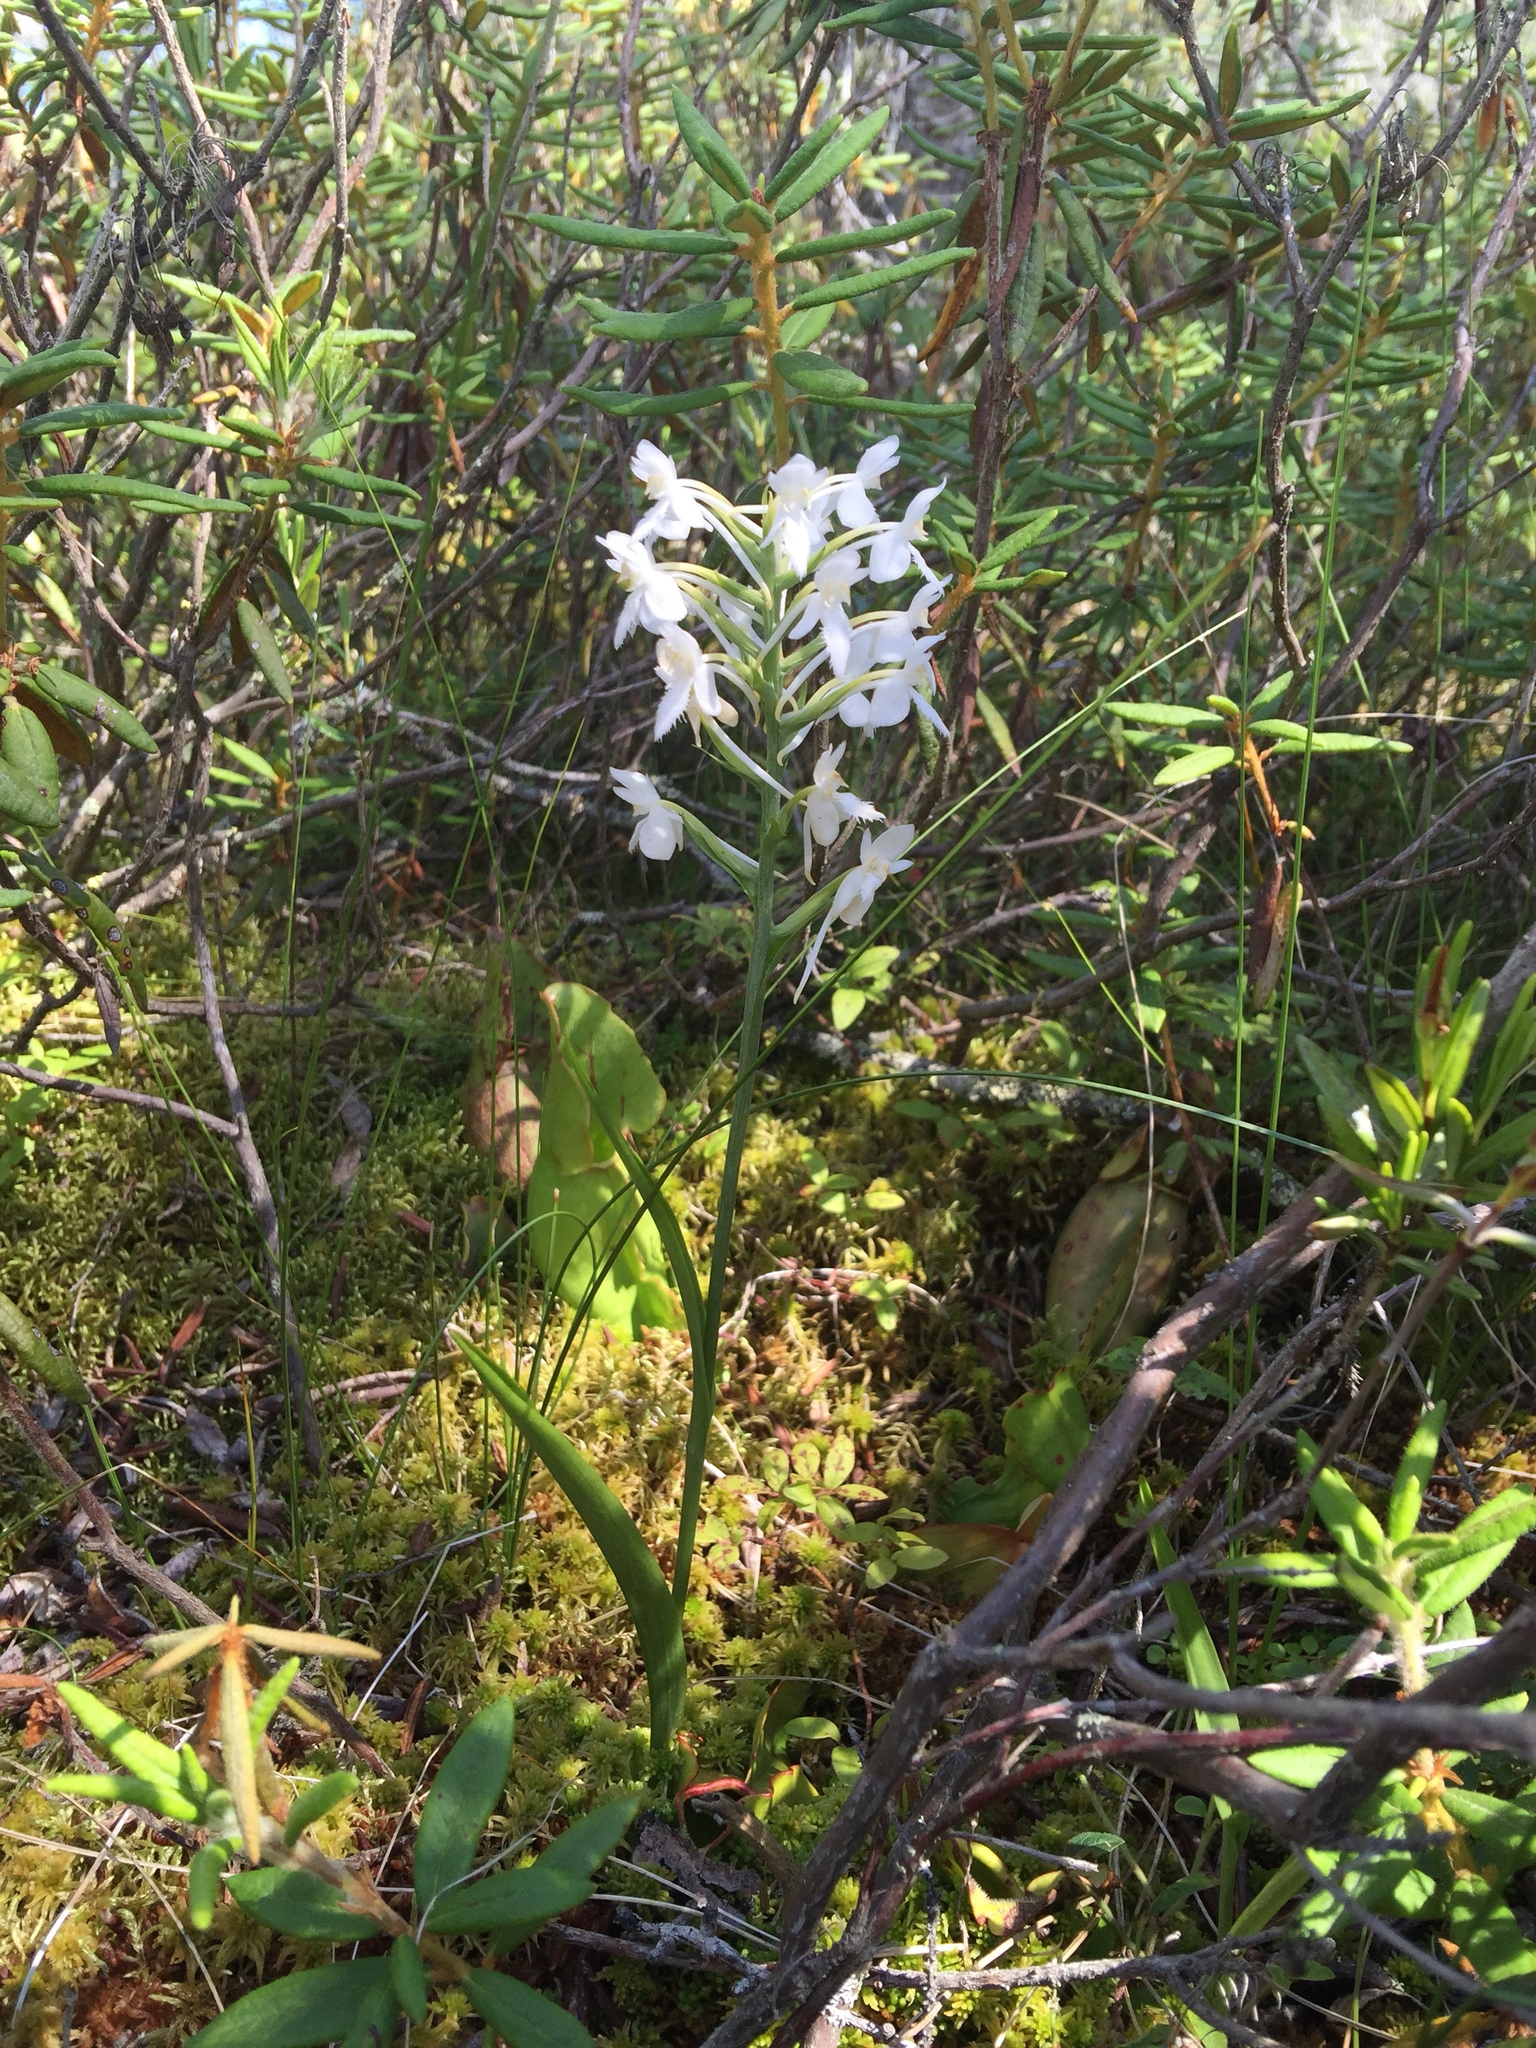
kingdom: Plantae
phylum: Tracheophyta
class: Liliopsida
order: Asparagales
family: Orchidaceae
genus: Platanthera
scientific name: Platanthera blephariglottis
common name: White fringed orchid
